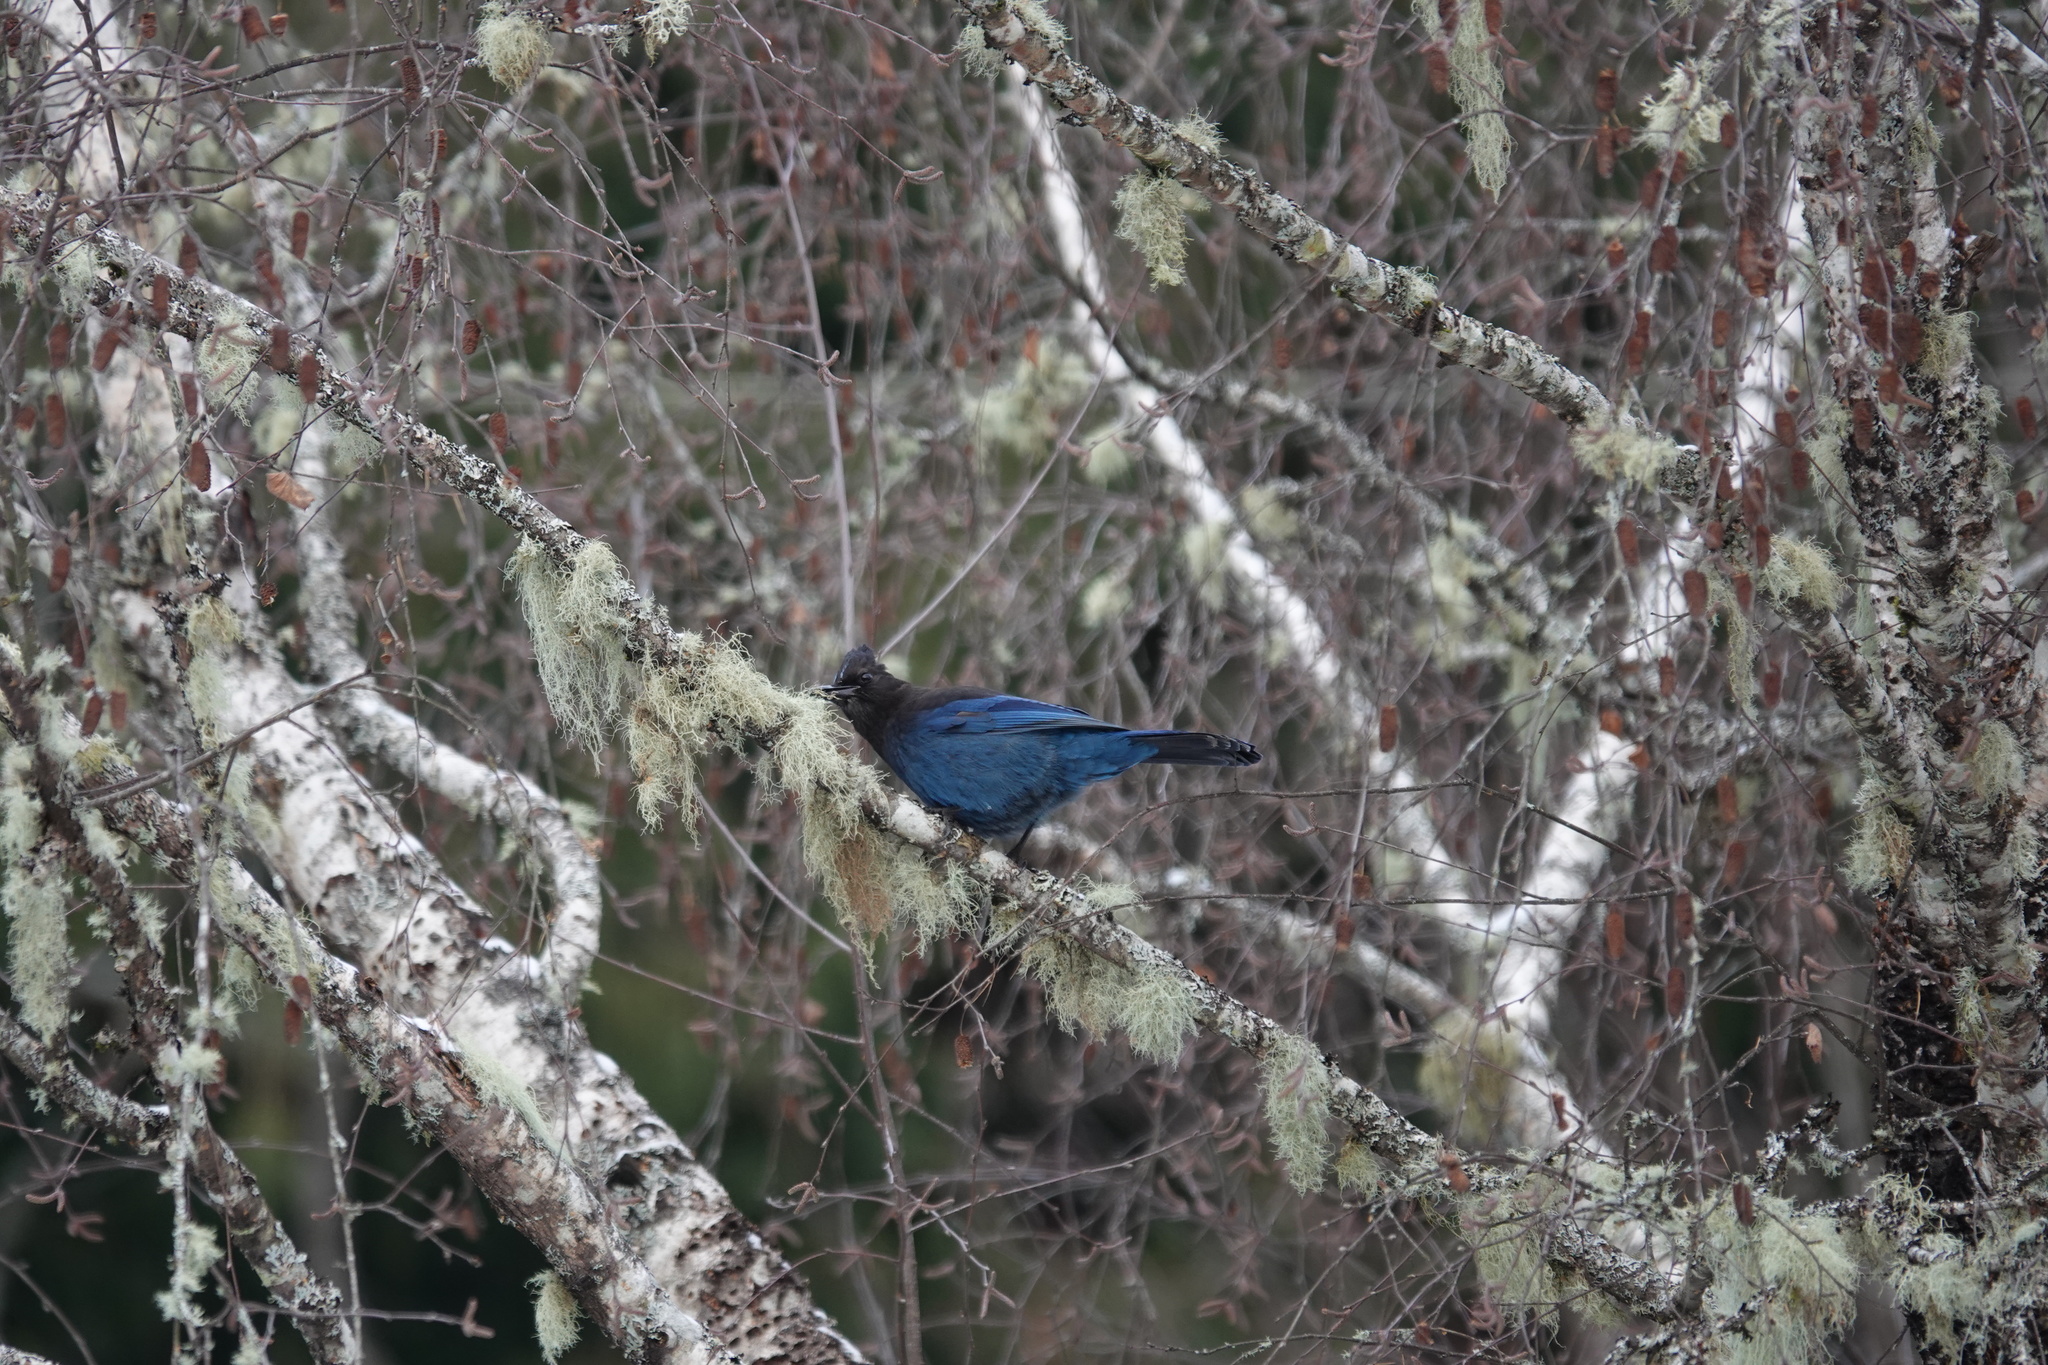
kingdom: Animalia
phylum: Chordata
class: Aves
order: Passeriformes
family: Corvidae
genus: Cyanocitta
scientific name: Cyanocitta stelleri
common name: Steller's jay
